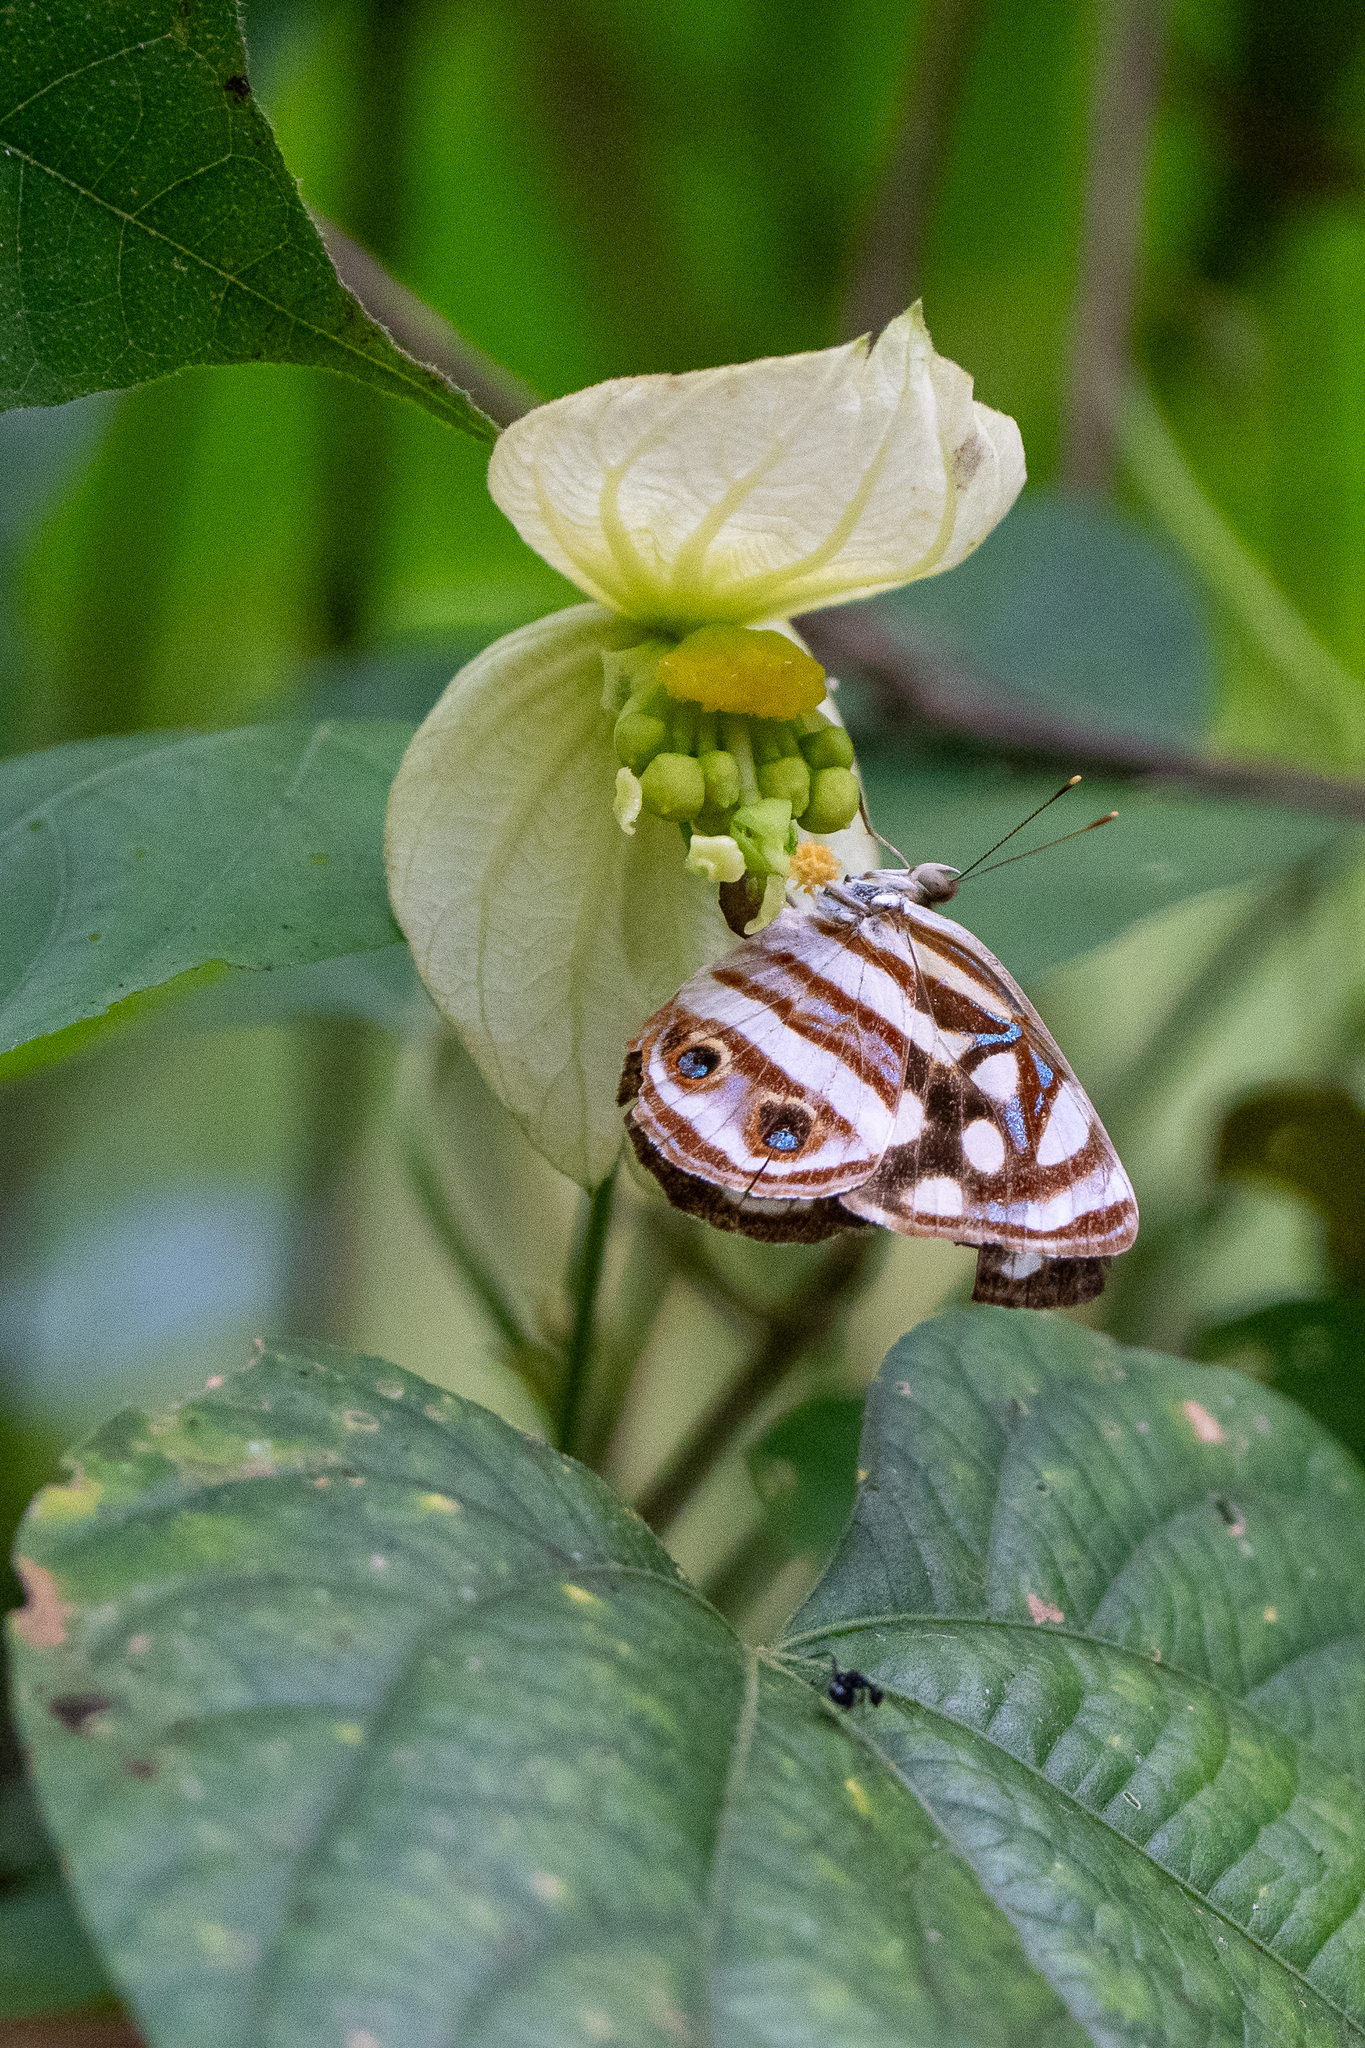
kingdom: Animalia
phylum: Arthropoda
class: Insecta
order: Lepidoptera
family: Nymphalidae
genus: Dynamine
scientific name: Dynamine mylitta
